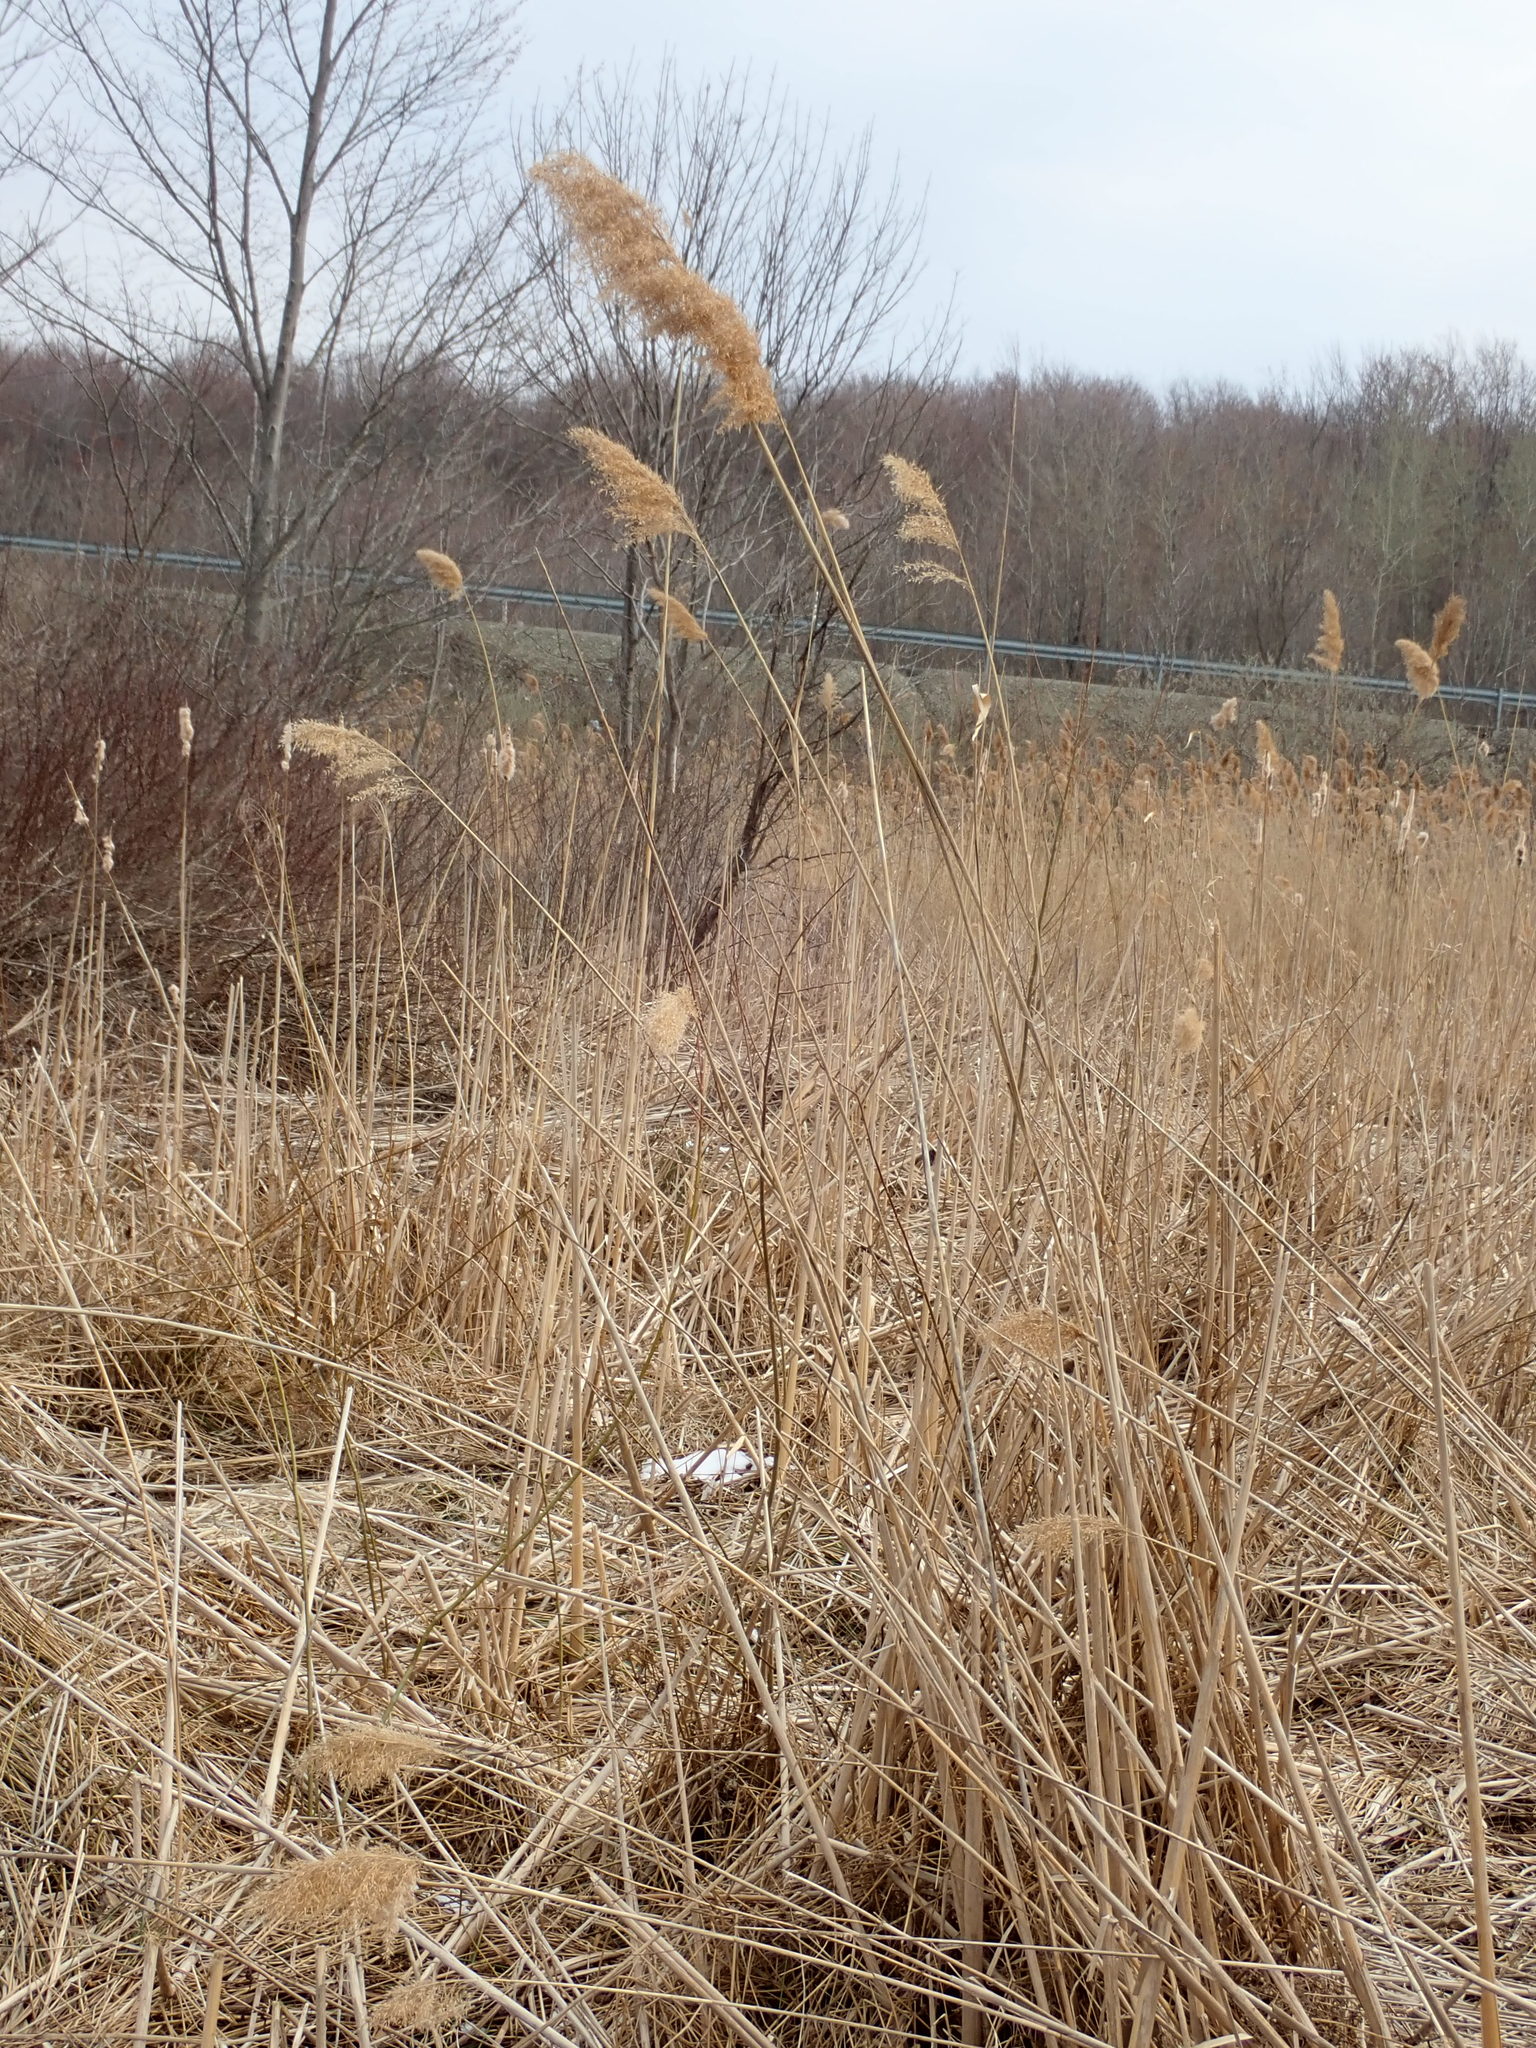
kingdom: Plantae
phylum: Tracheophyta
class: Liliopsida
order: Poales
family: Poaceae
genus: Phragmites
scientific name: Phragmites australis
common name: Common reed
